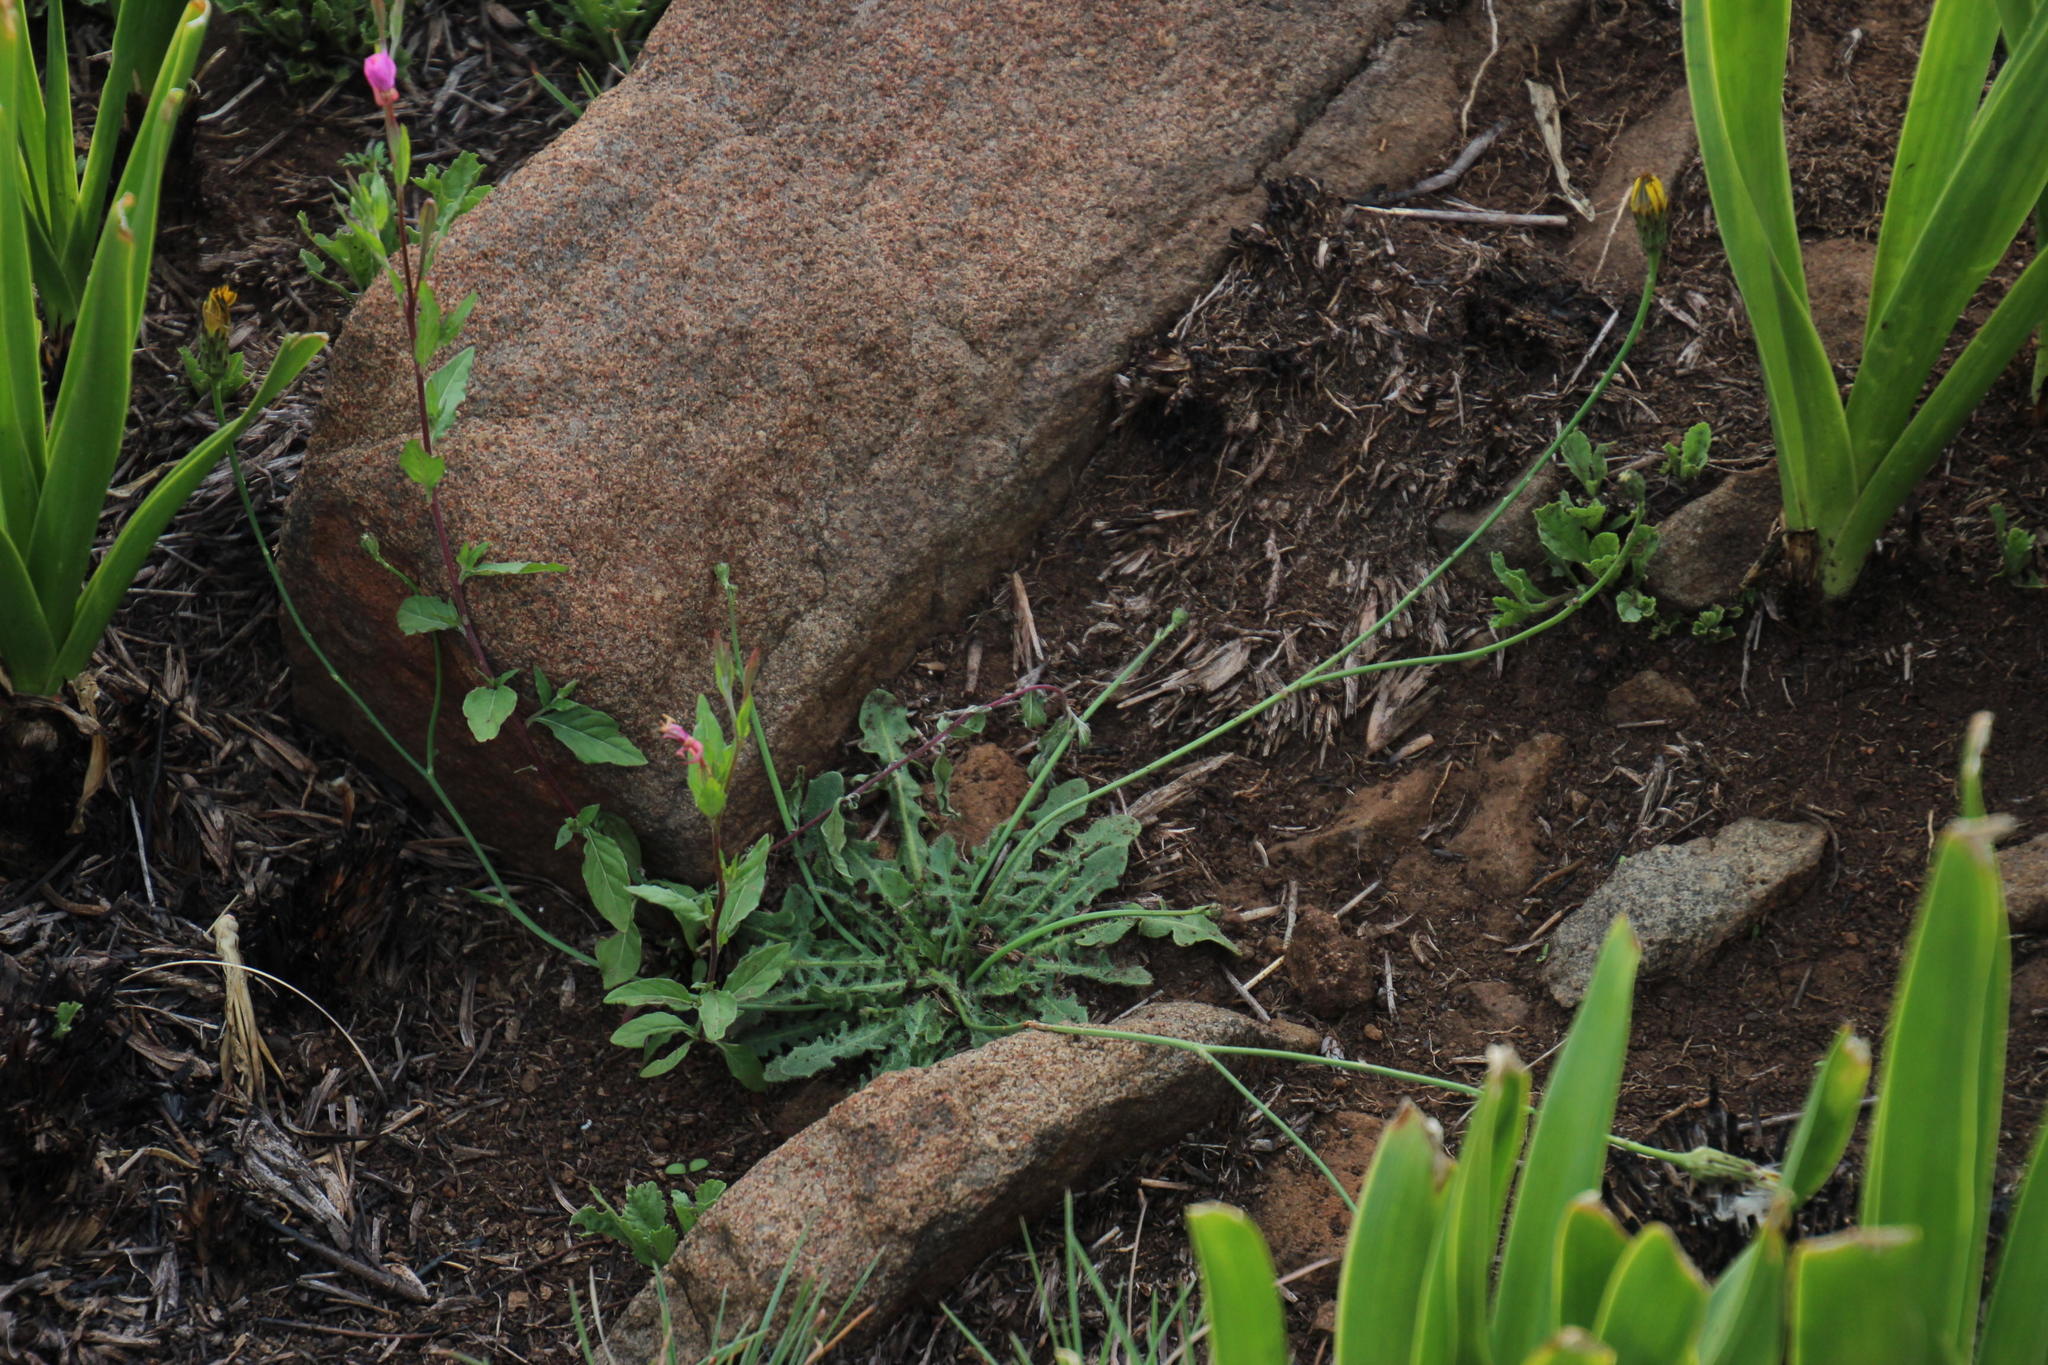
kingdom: Plantae
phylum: Tracheophyta
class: Magnoliopsida
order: Asterales
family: Asteraceae
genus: Hypochaeris
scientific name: Hypochaeris radicata
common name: Flatweed
